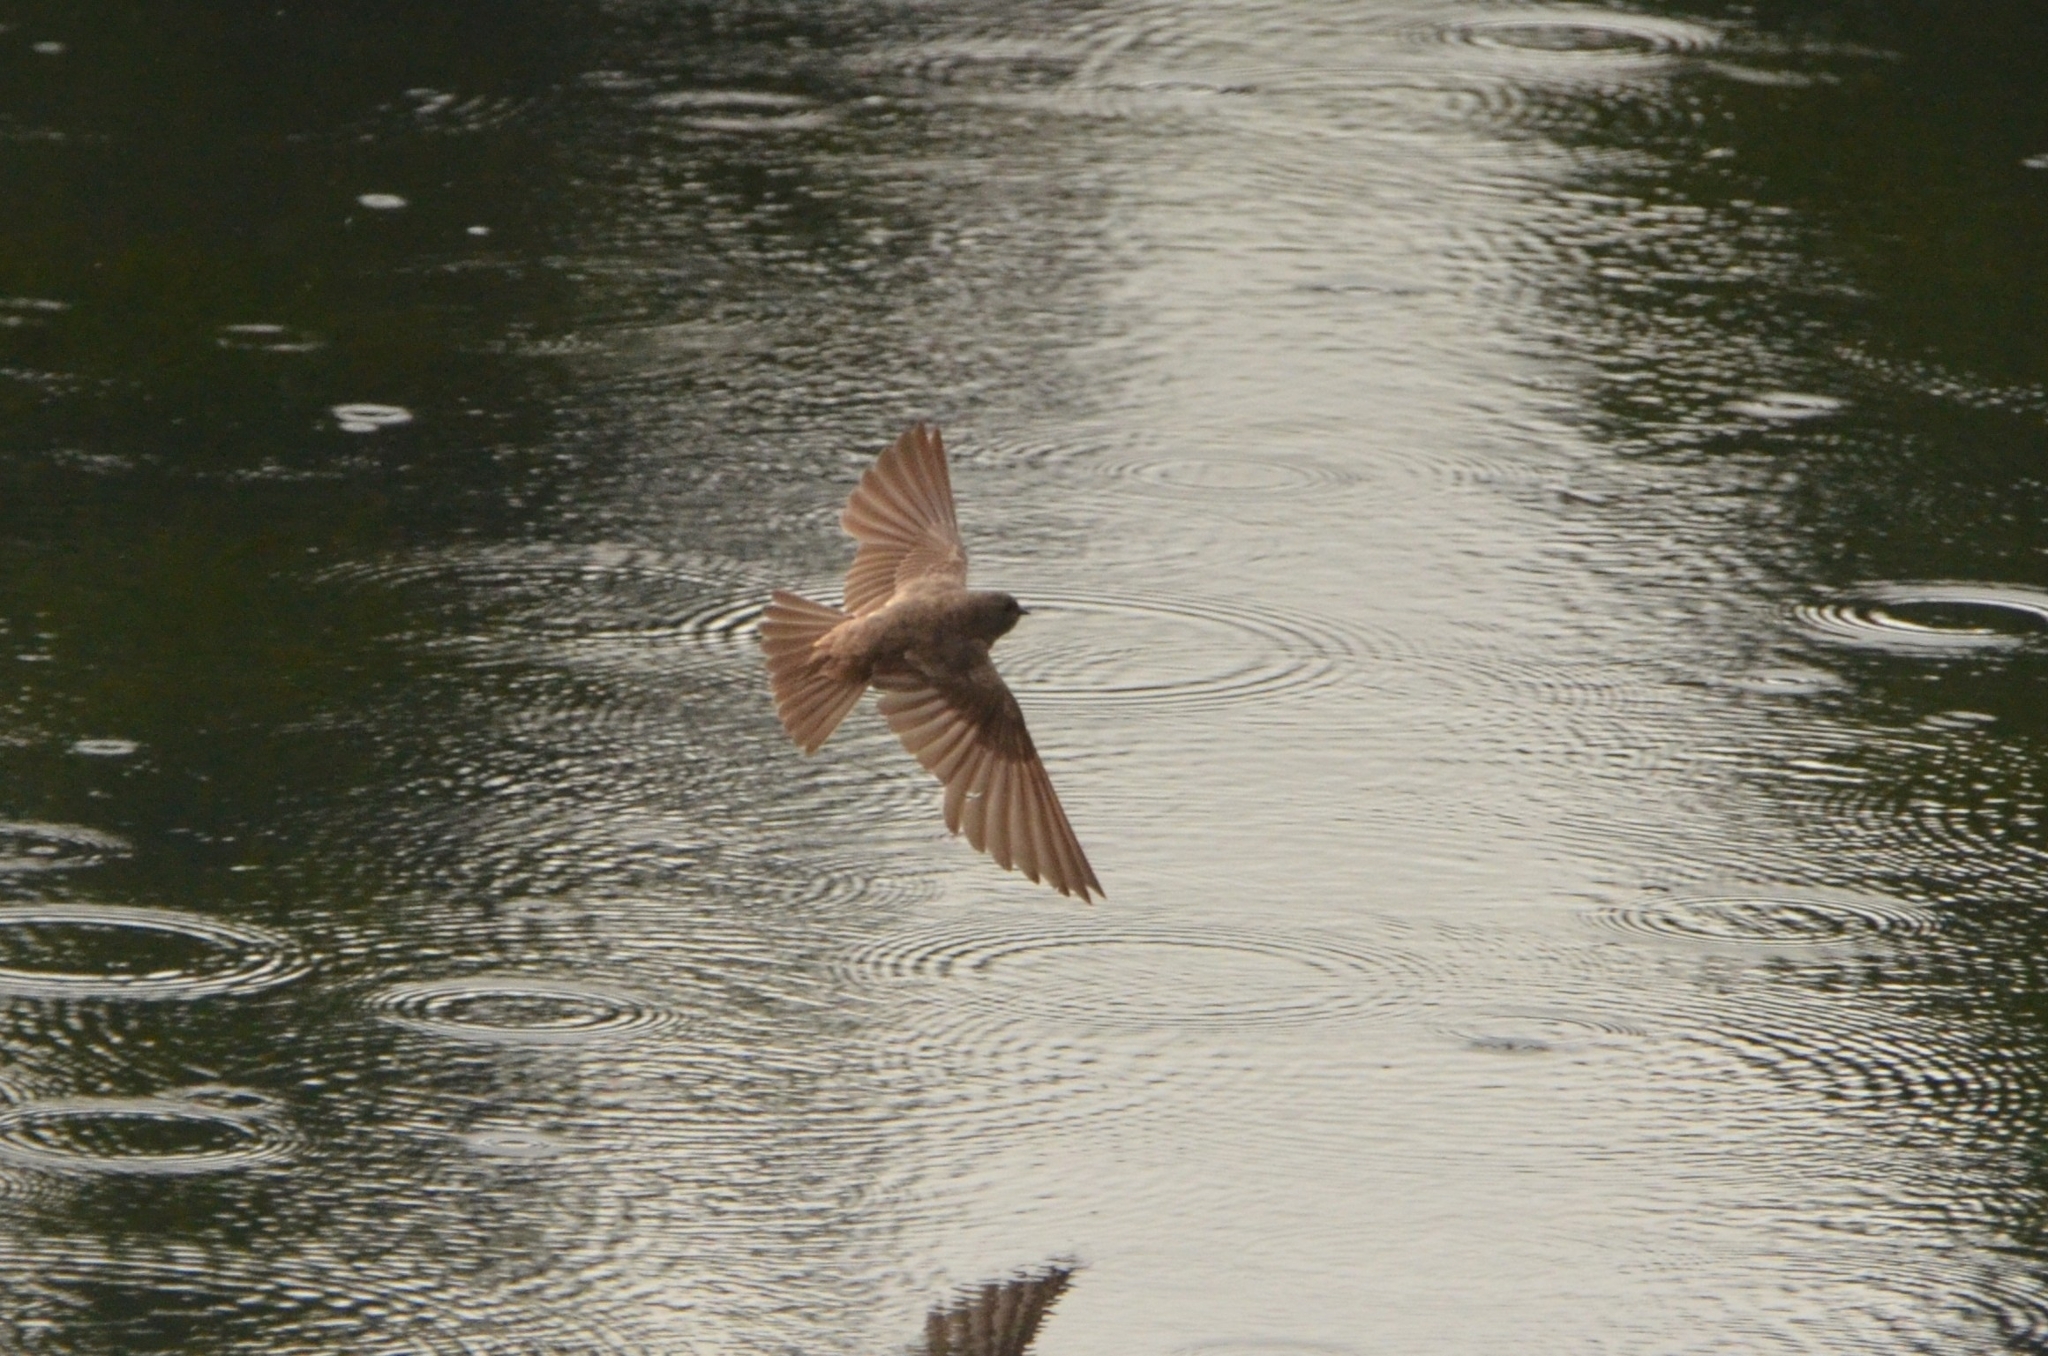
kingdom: Animalia
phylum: Chordata
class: Aves
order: Passeriformes
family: Hirundinidae
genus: Riparia
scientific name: Riparia paludicola
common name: Brown-throated martin
